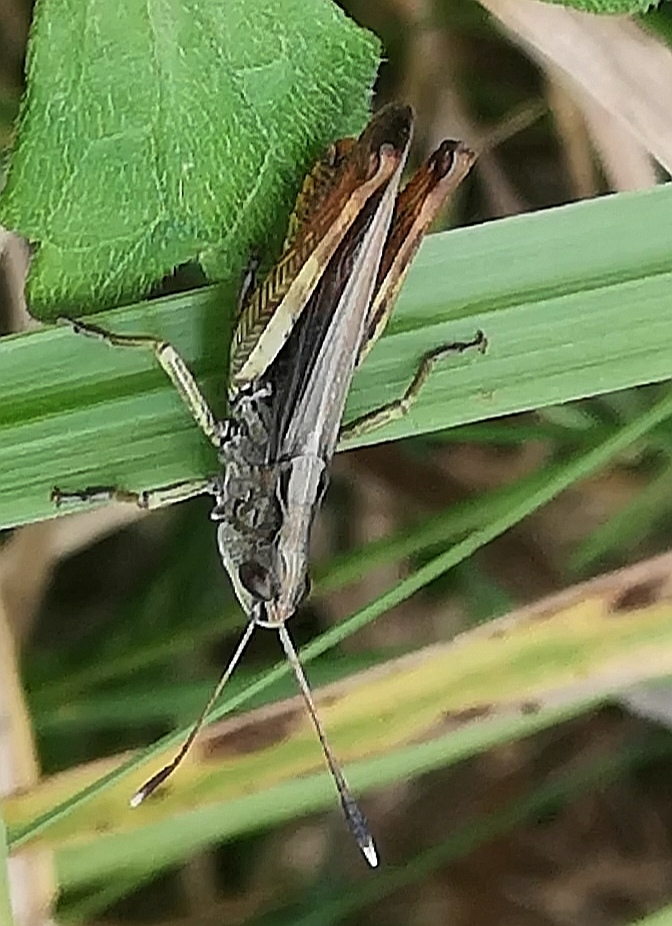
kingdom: Animalia
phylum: Arthropoda
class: Insecta
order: Orthoptera
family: Acrididae
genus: Gomphocerippus
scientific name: Gomphocerippus rufus
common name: Rufous grasshopper
